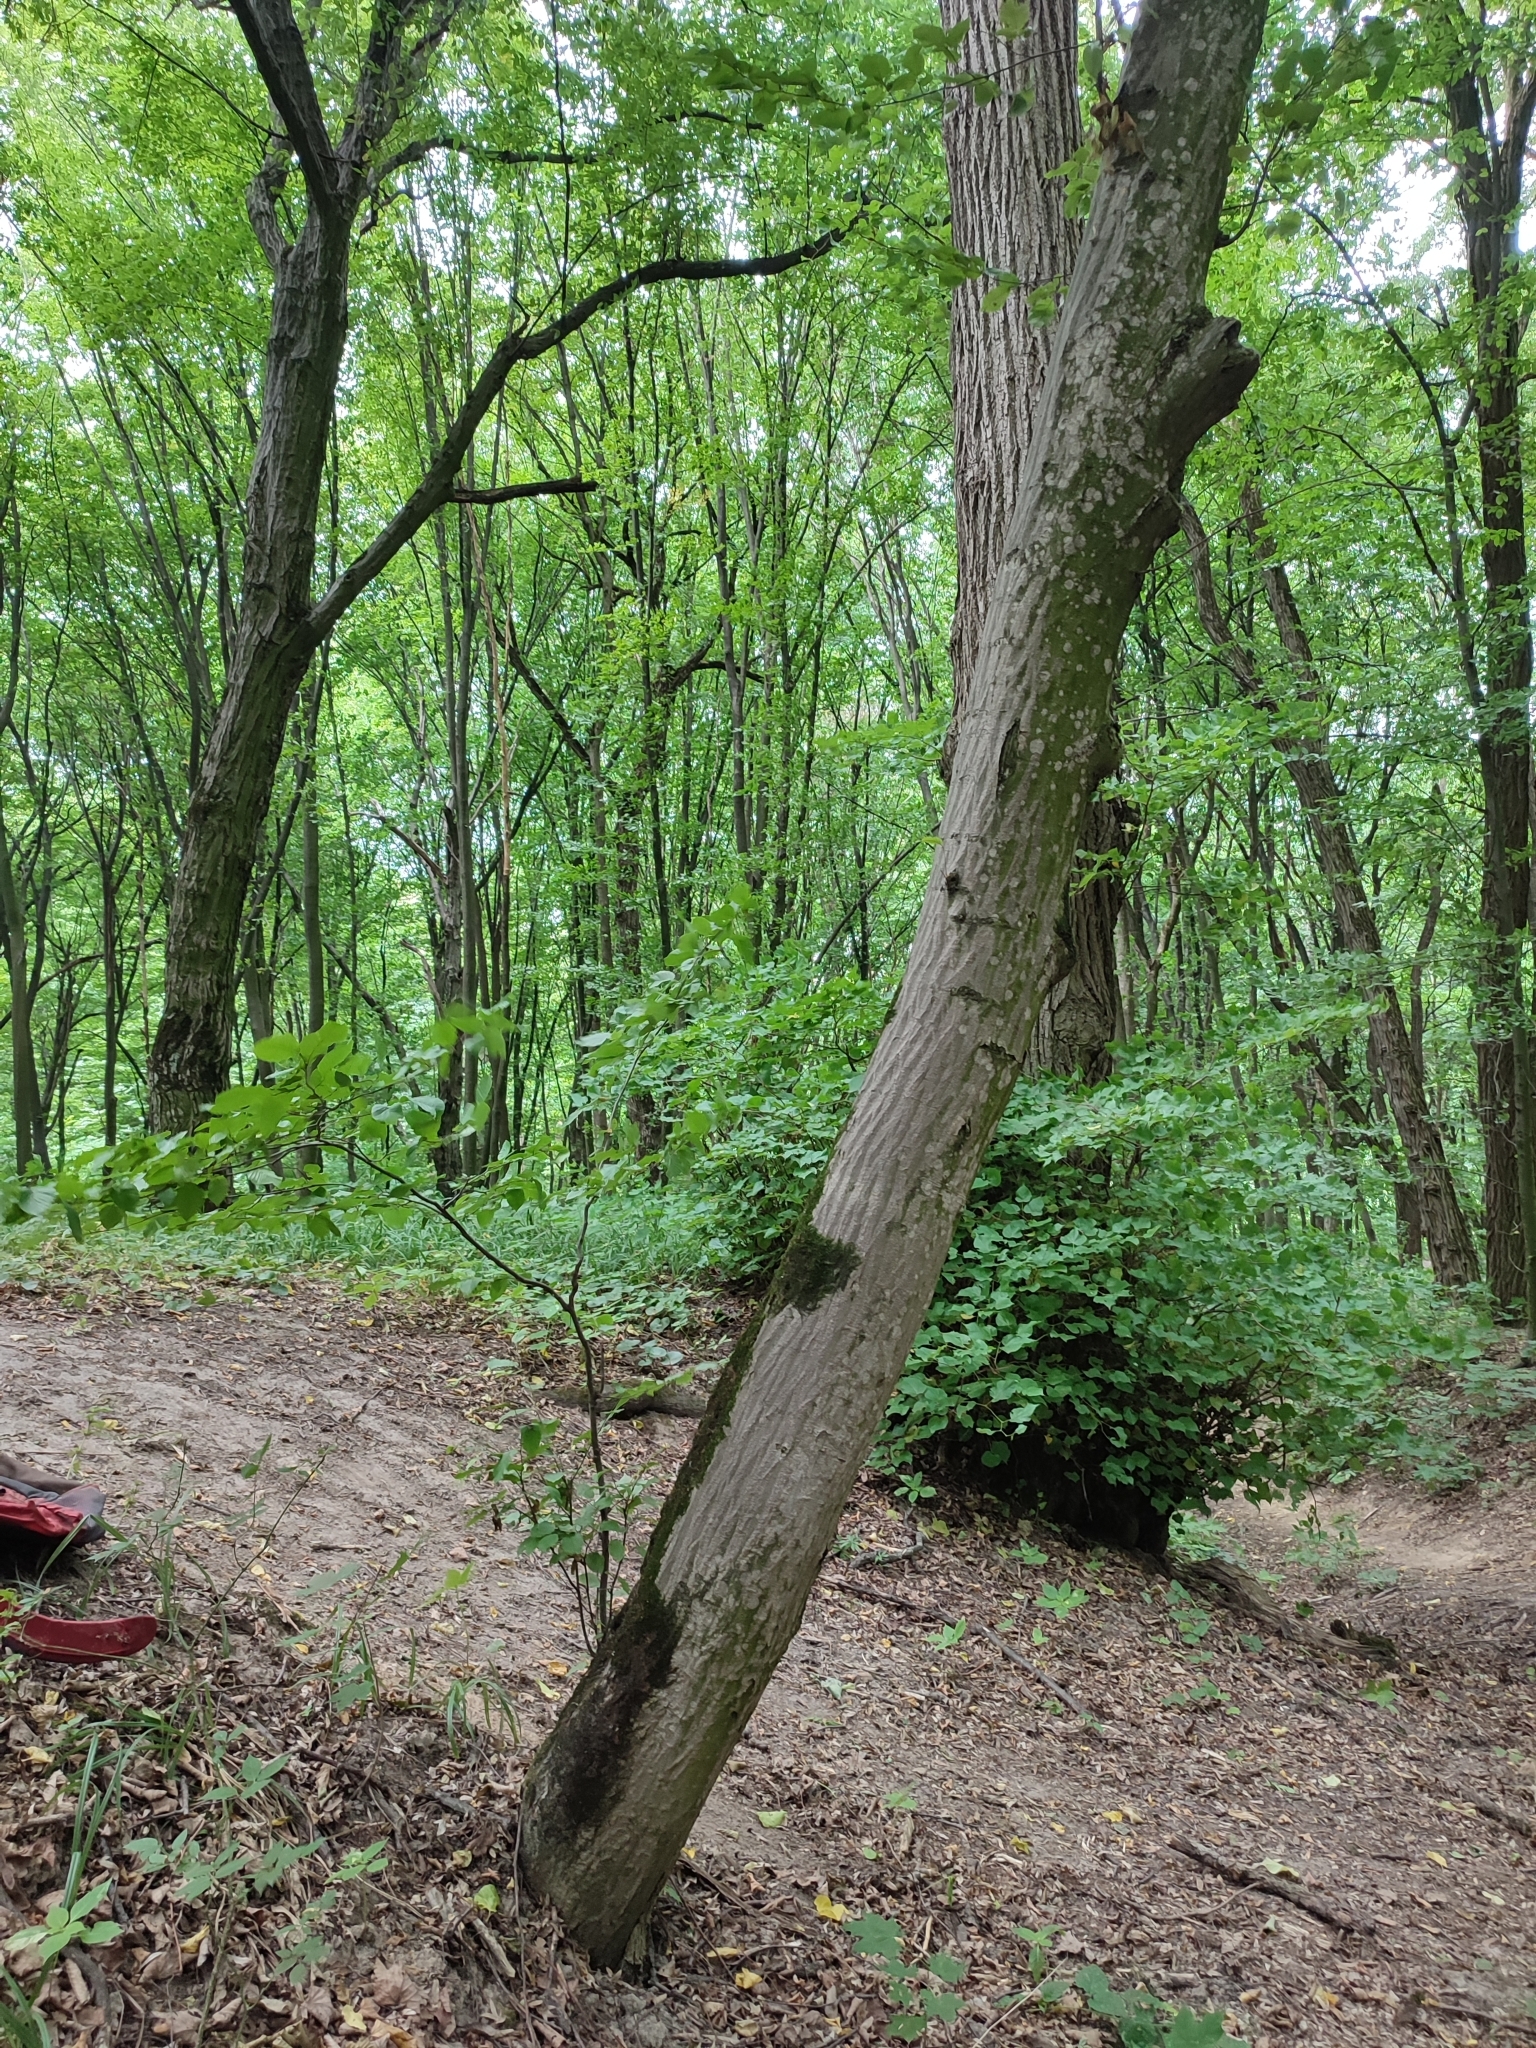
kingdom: Plantae
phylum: Tracheophyta
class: Magnoliopsida
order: Fagales
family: Betulaceae
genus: Carpinus
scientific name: Carpinus betulus
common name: Hornbeam
